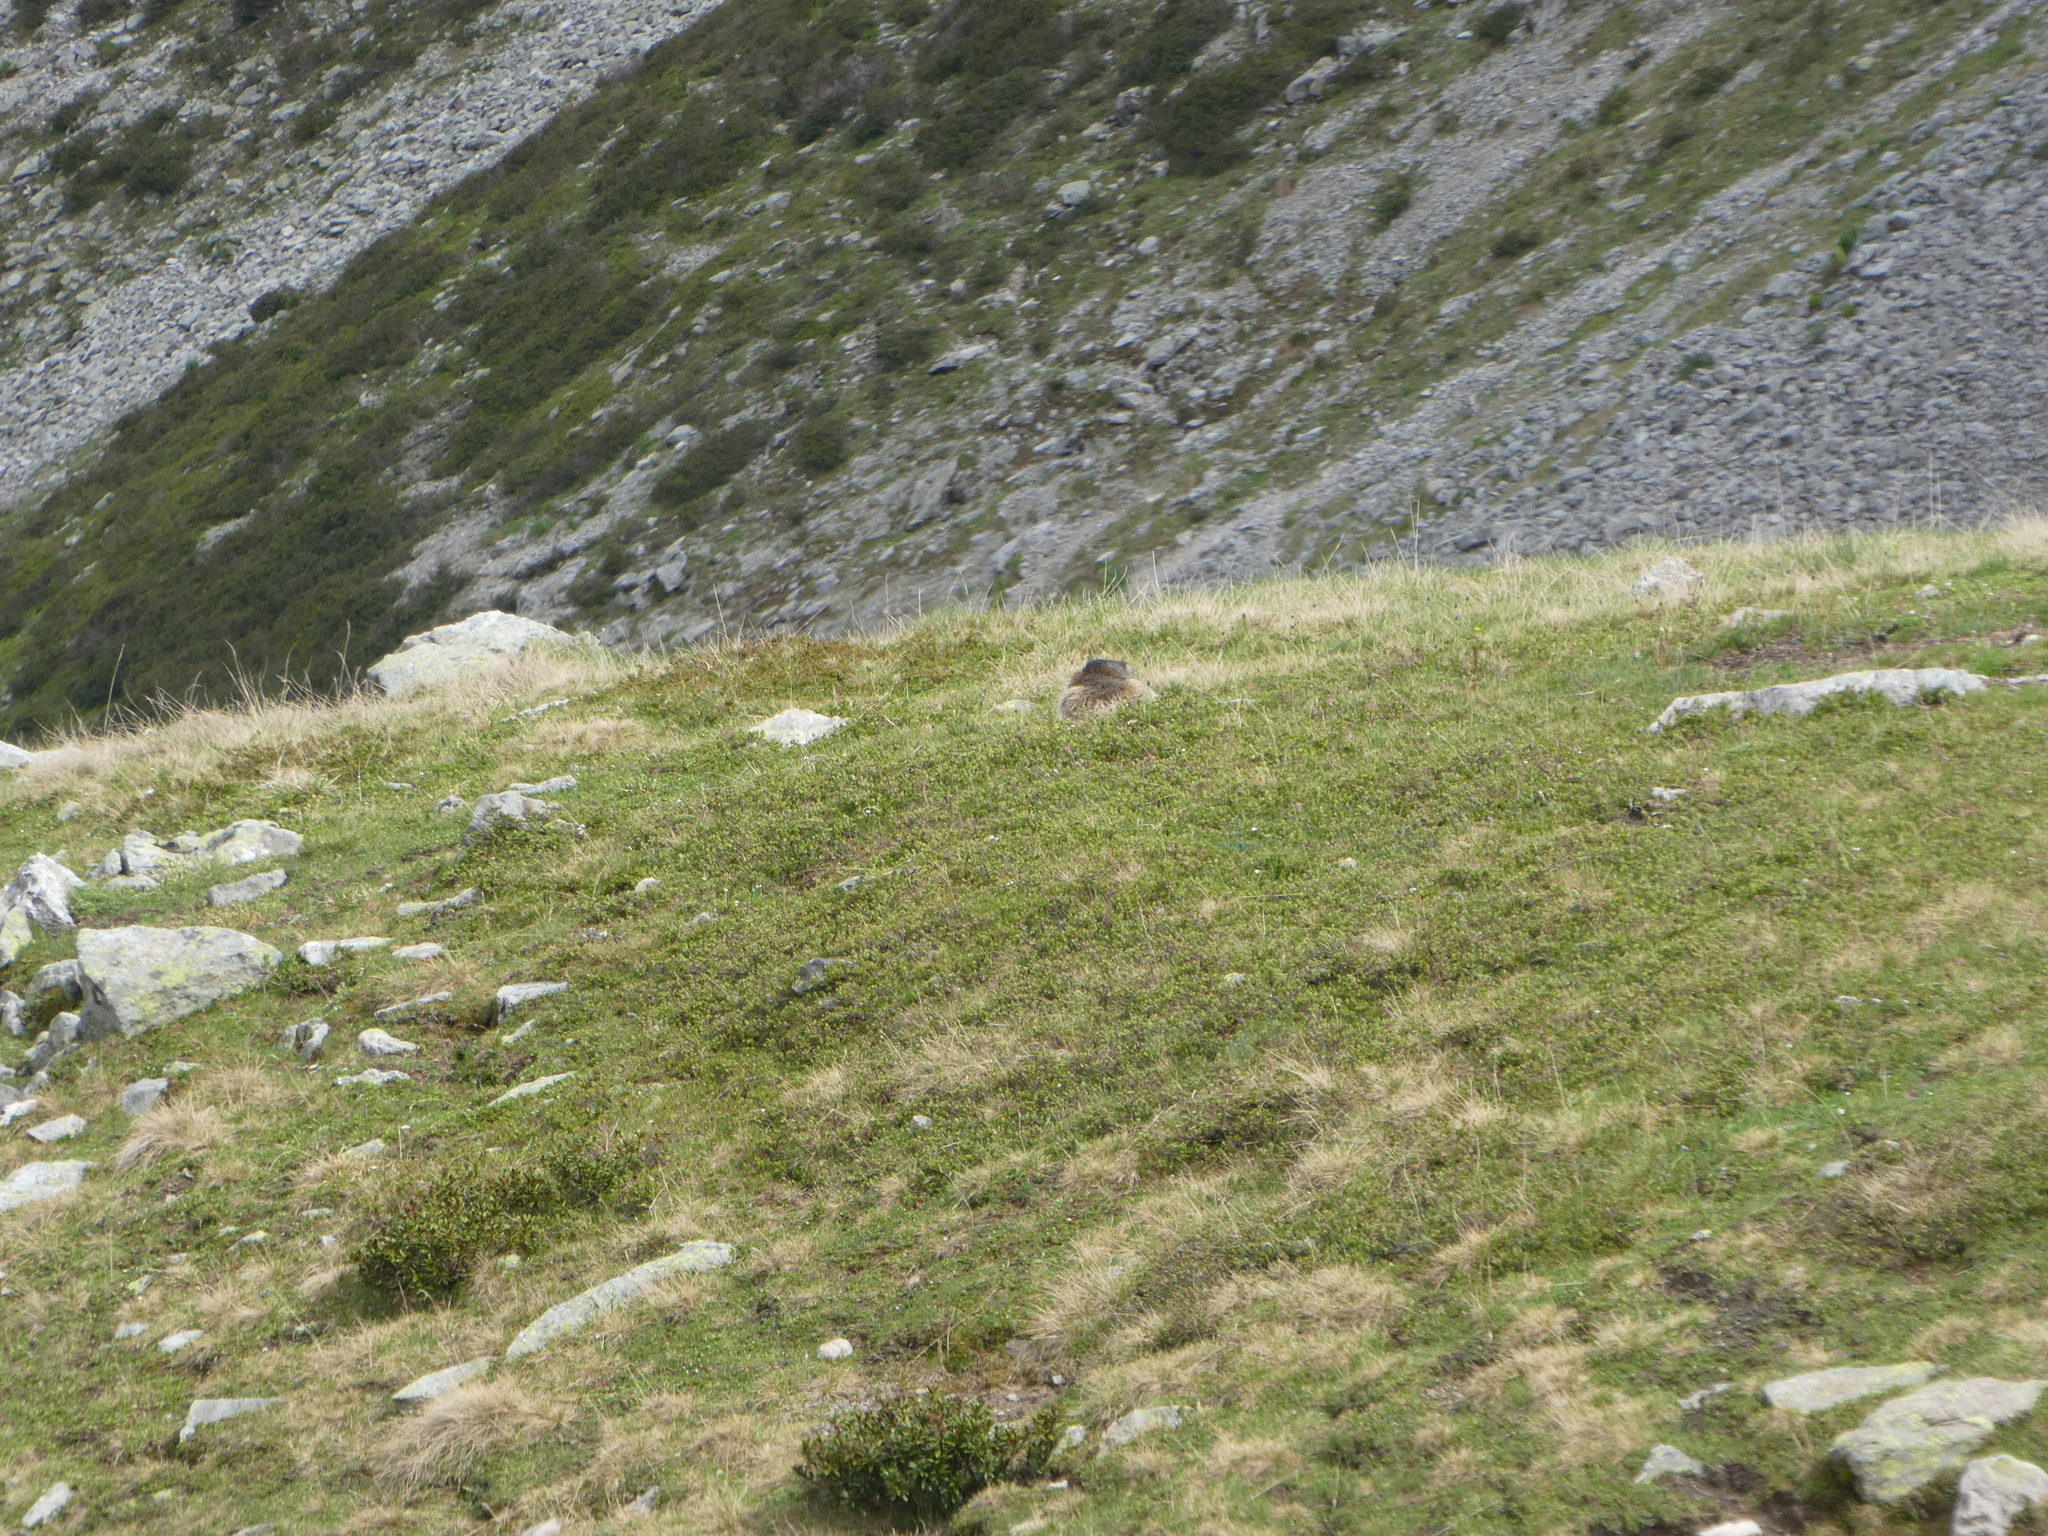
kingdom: Animalia
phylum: Chordata
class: Mammalia
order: Rodentia
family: Sciuridae
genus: Marmota
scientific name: Marmota marmota
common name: Alpine marmot
